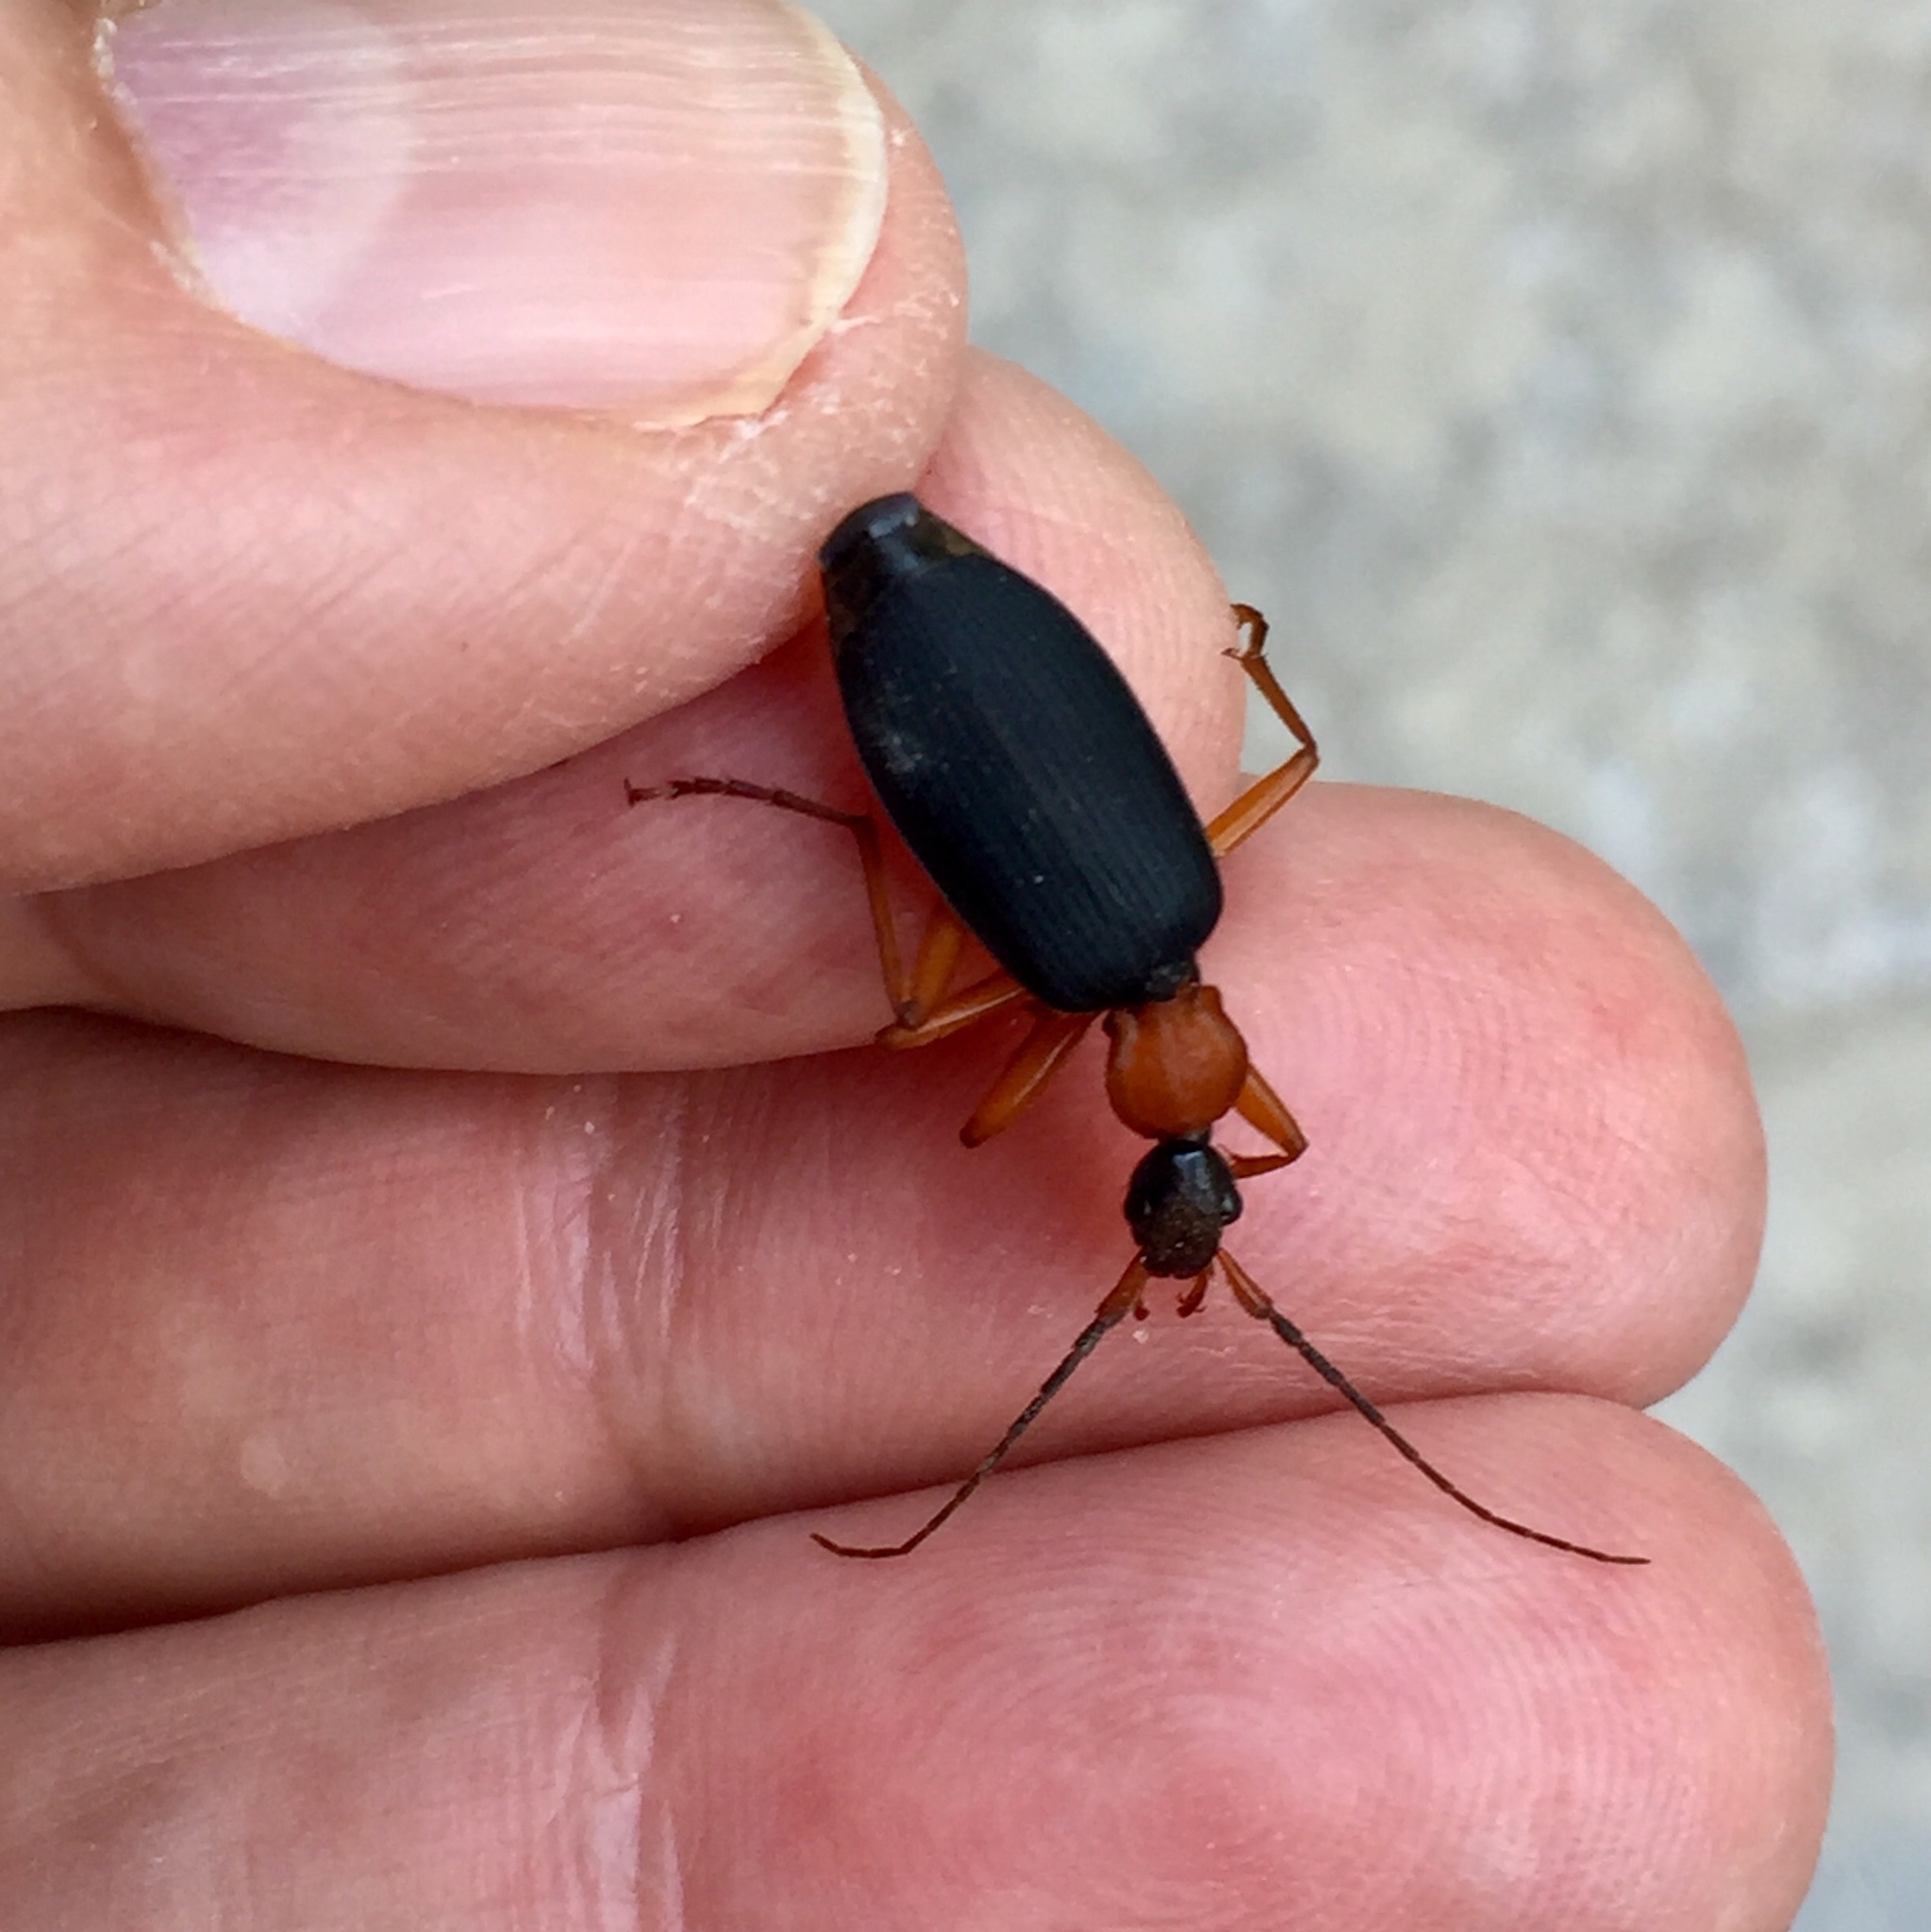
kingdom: Animalia
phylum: Arthropoda
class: Insecta
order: Coleoptera
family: Carabidae
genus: Galerita
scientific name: Galerita bicolor
